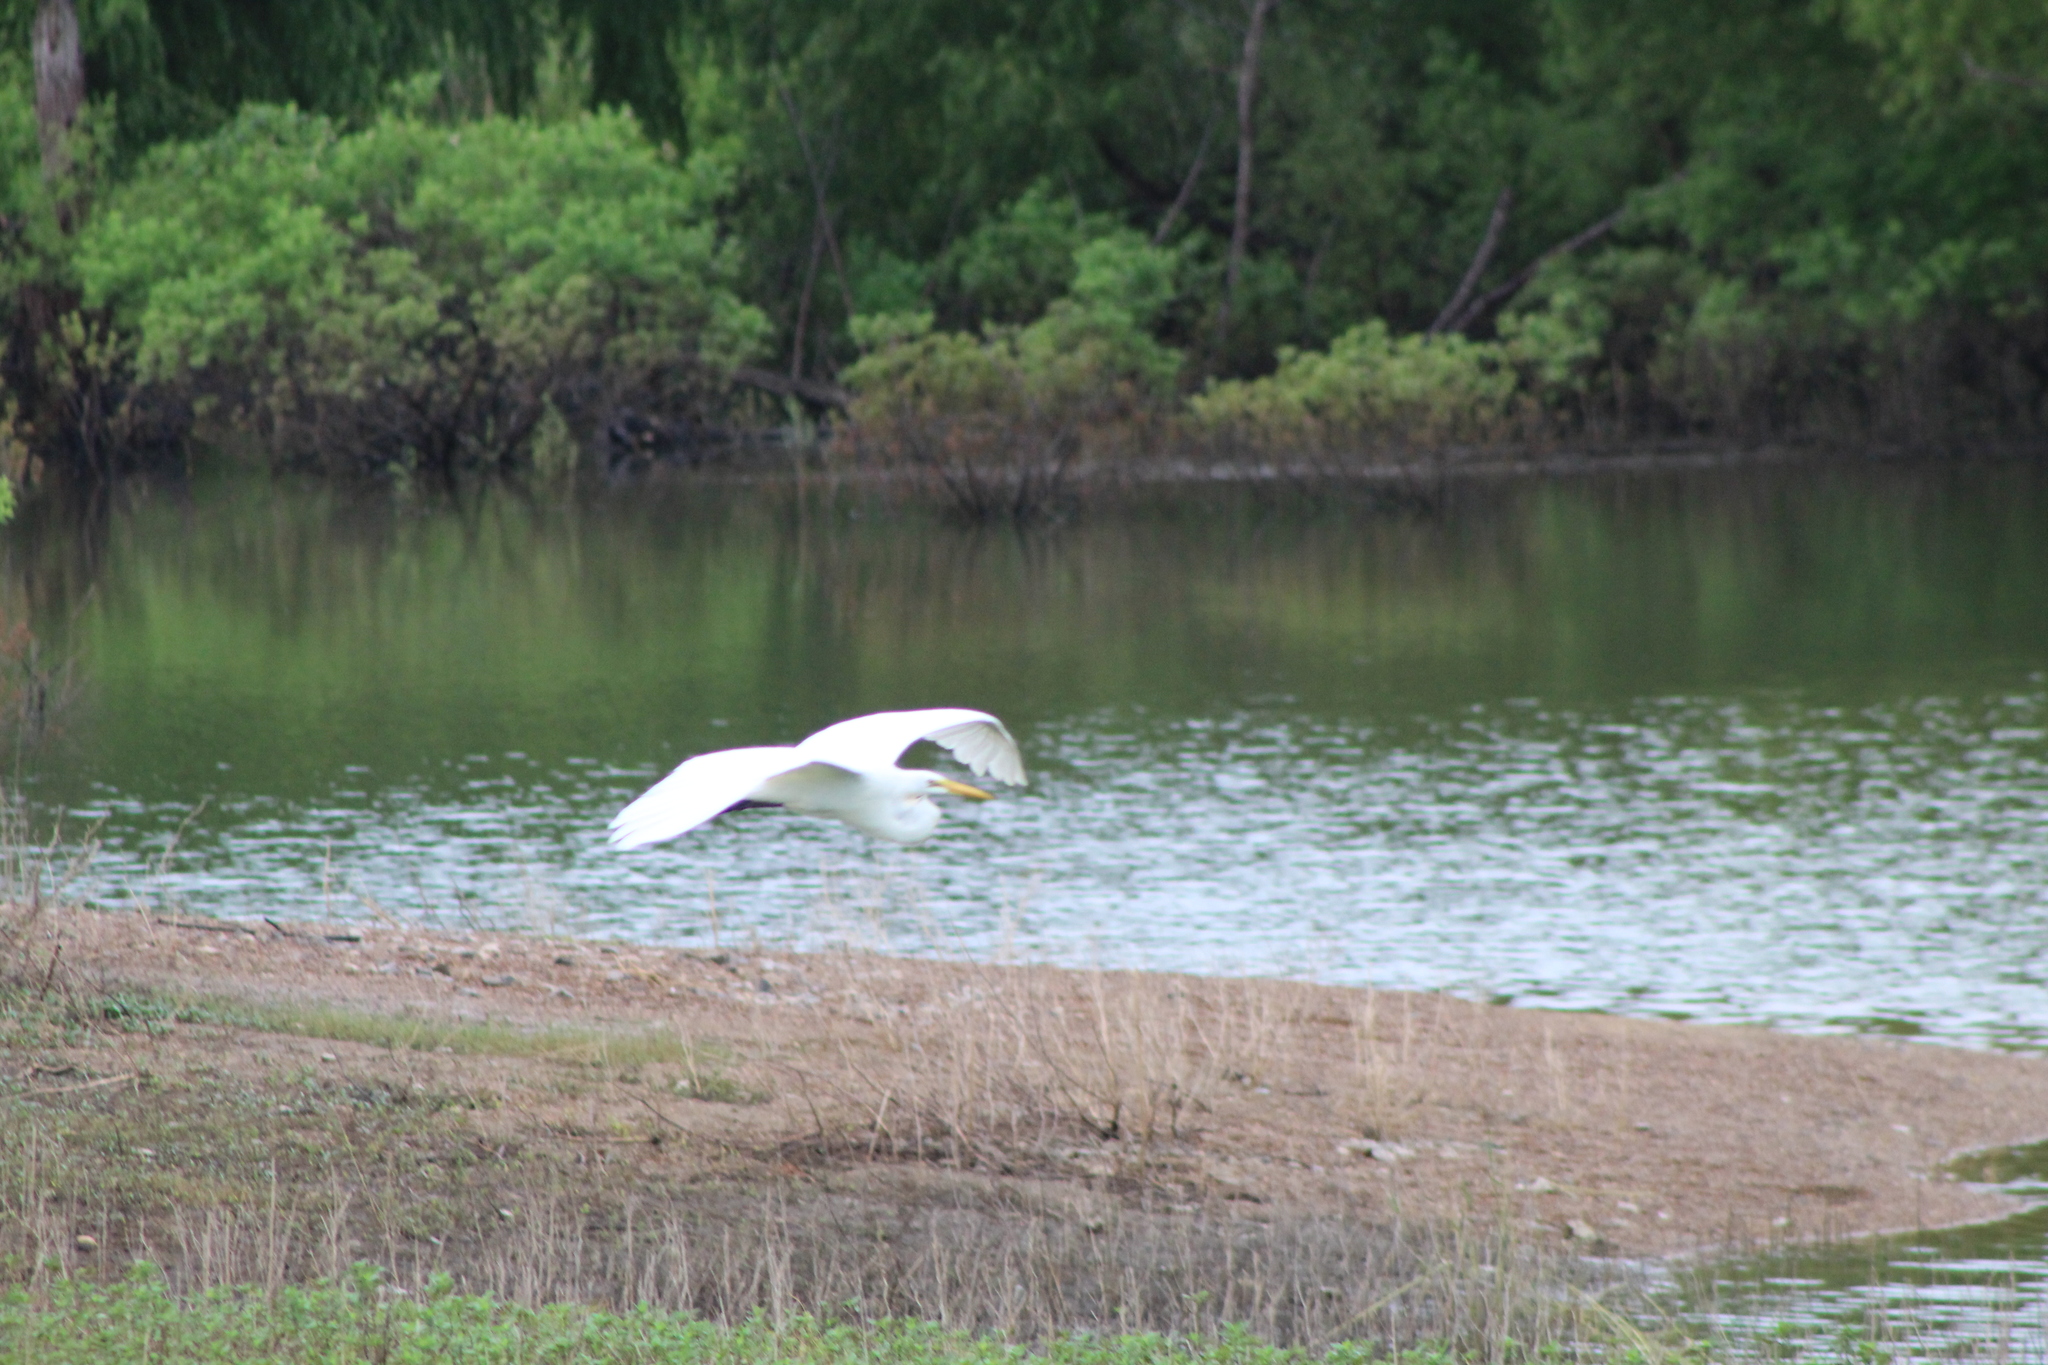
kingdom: Animalia
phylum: Chordata
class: Aves
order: Pelecaniformes
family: Ardeidae
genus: Ardea
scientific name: Ardea alba
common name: Great egret
